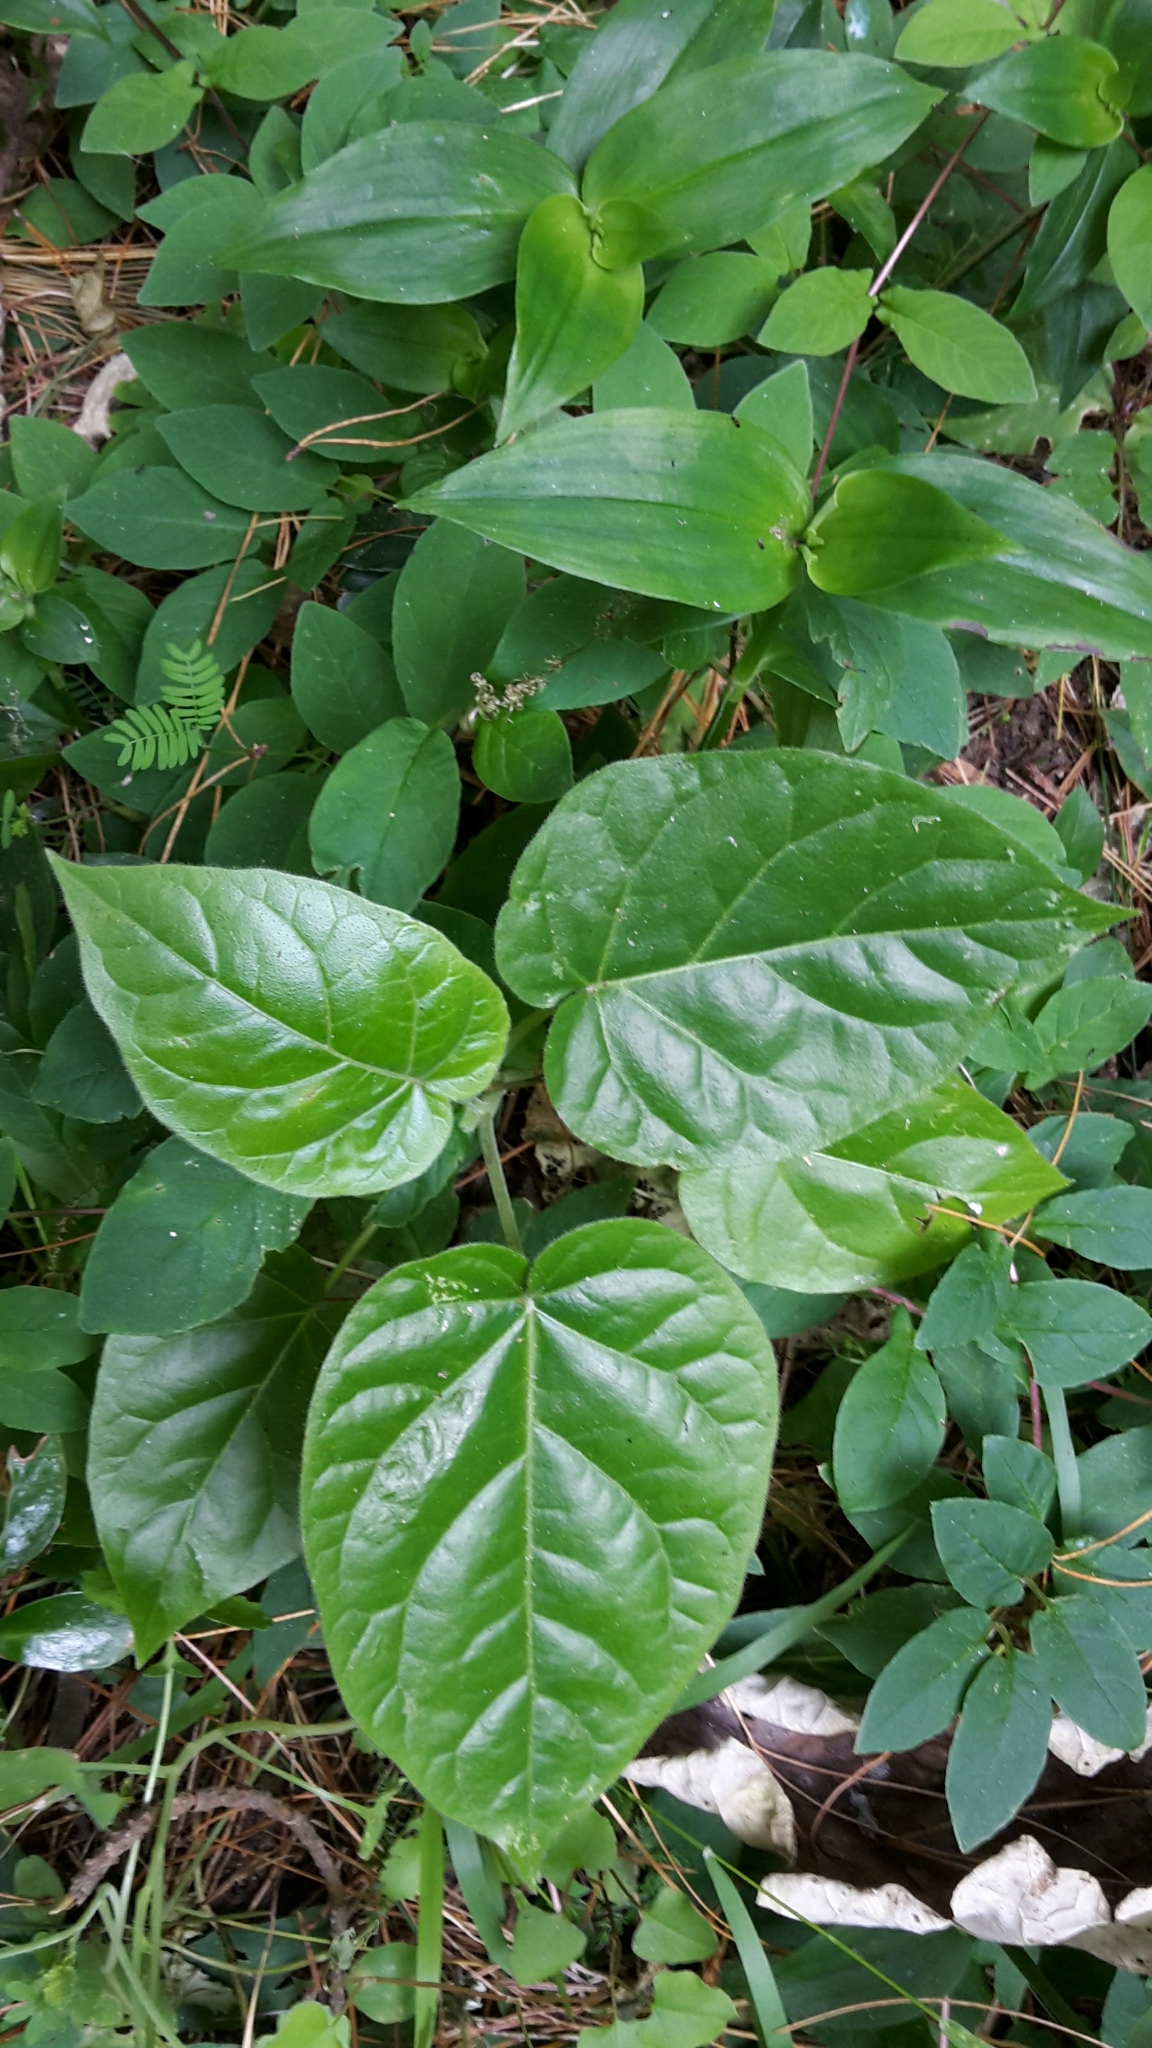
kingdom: Plantae
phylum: Tracheophyta
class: Magnoliopsida
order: Solanales
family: Solanaceae
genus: Solanum
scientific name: Solanum betaceum
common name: Tamarillo
